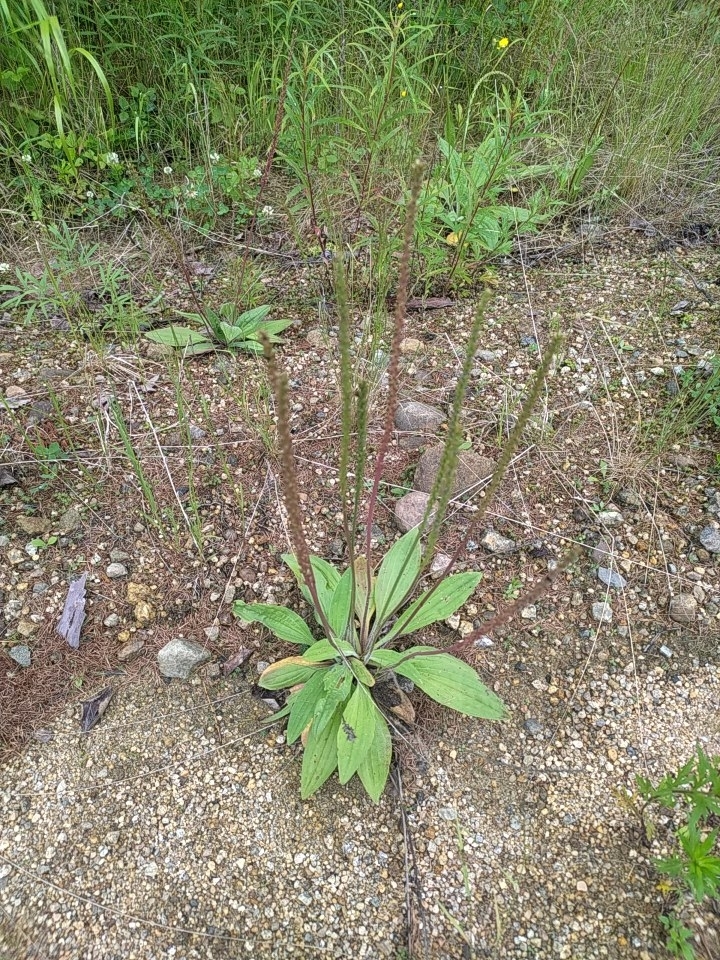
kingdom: Plantae
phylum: Tracheophyta
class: Magnoliopsida
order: Lamiales
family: Plantaginaceae
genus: Plantago
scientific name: Plantago depressa
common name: Depressed plantain
